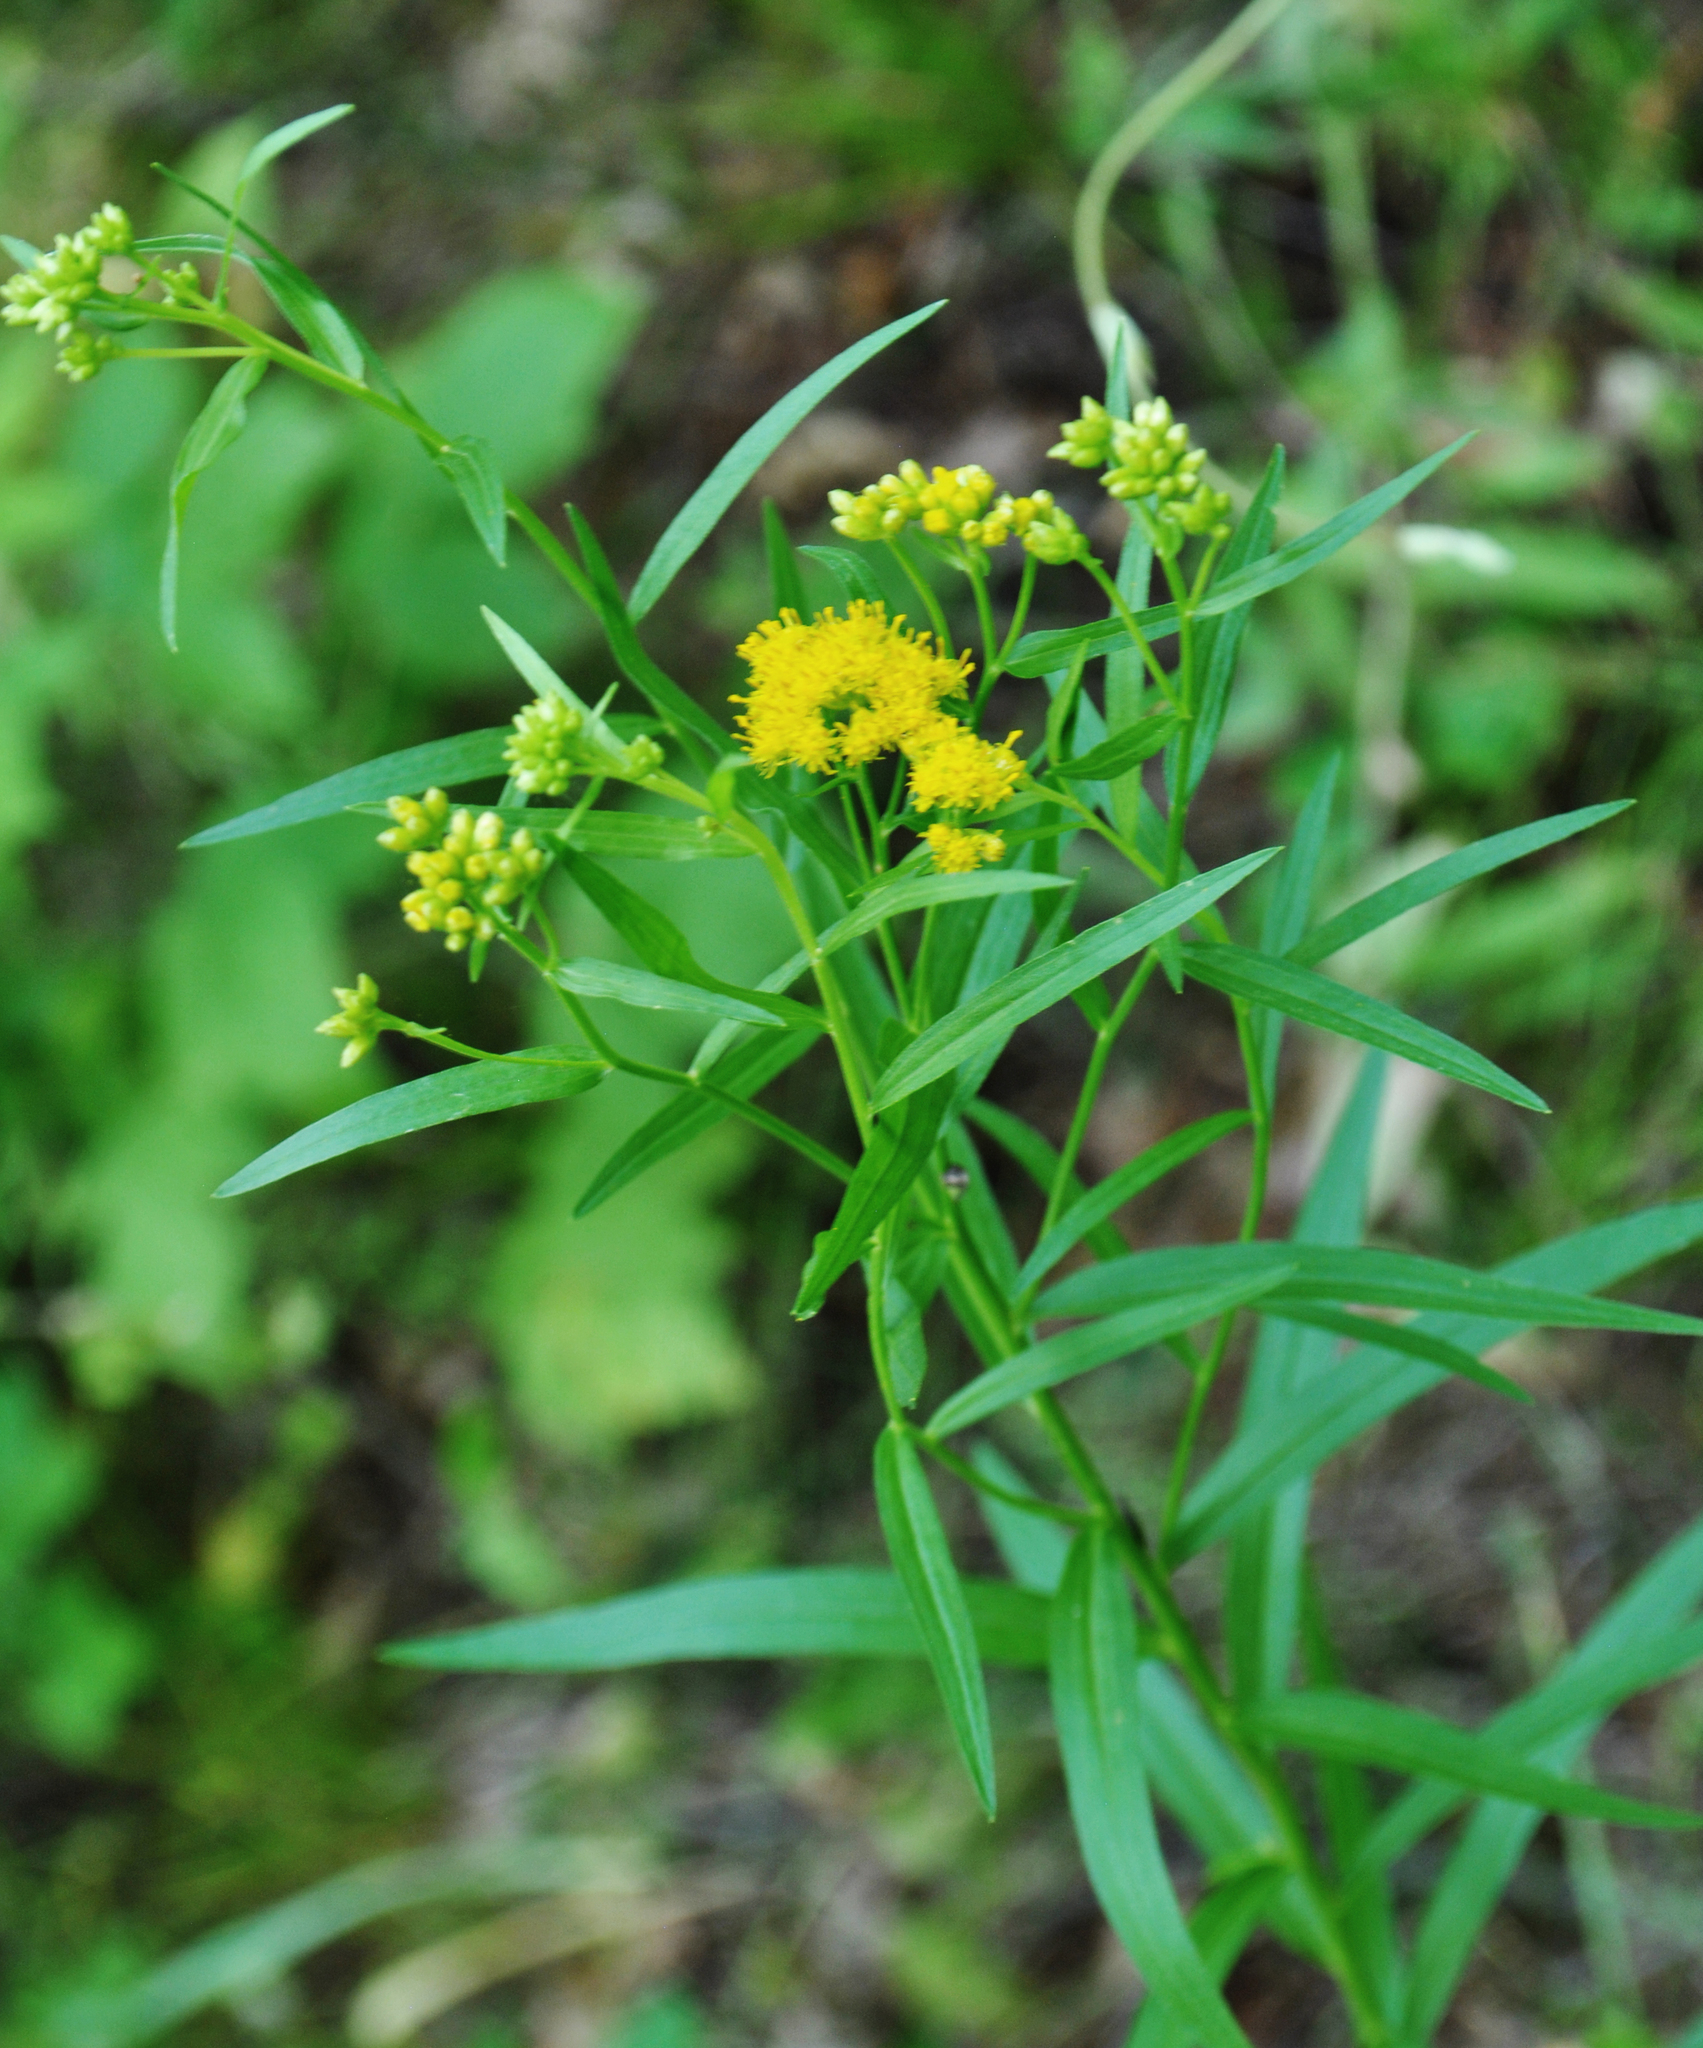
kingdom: Plantae
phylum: Tracheophyta
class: Magnoliopsida
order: Asterales
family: Asteraceae
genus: Euthamia
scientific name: Euthamia graminifolia
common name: Common goldentop
